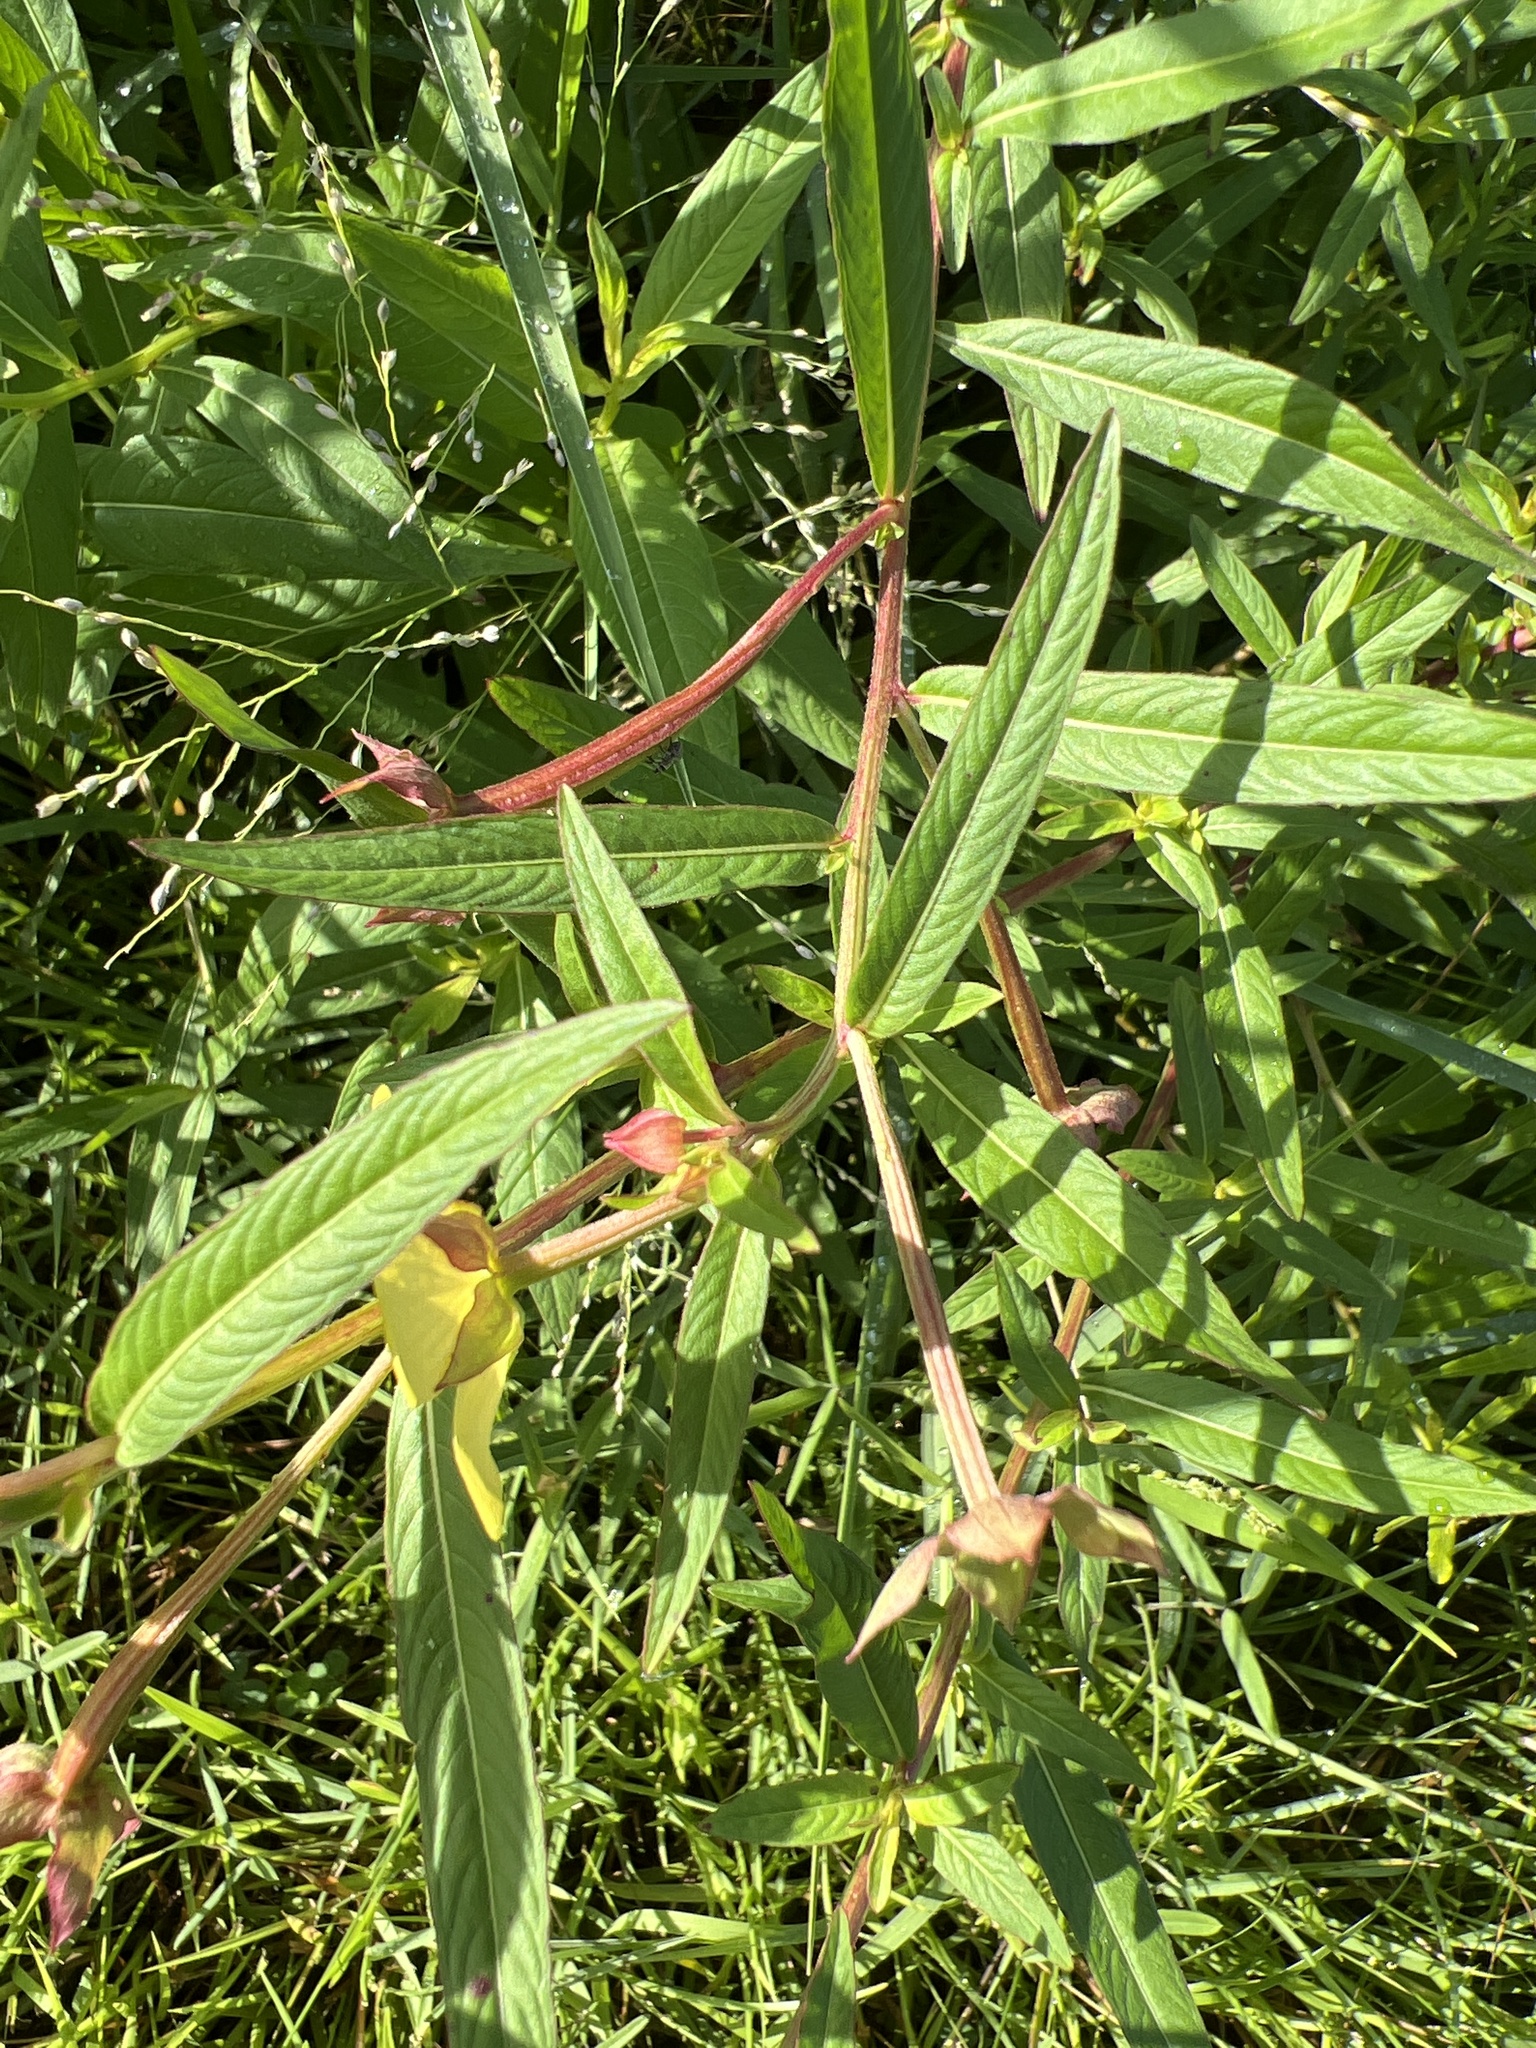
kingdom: Plantae
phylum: Tracheophyta
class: Magnoliopsida
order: Myrtales
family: Onagraceae
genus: Ludwigia
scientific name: Ludwigia octovalvis
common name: Water-primrose
